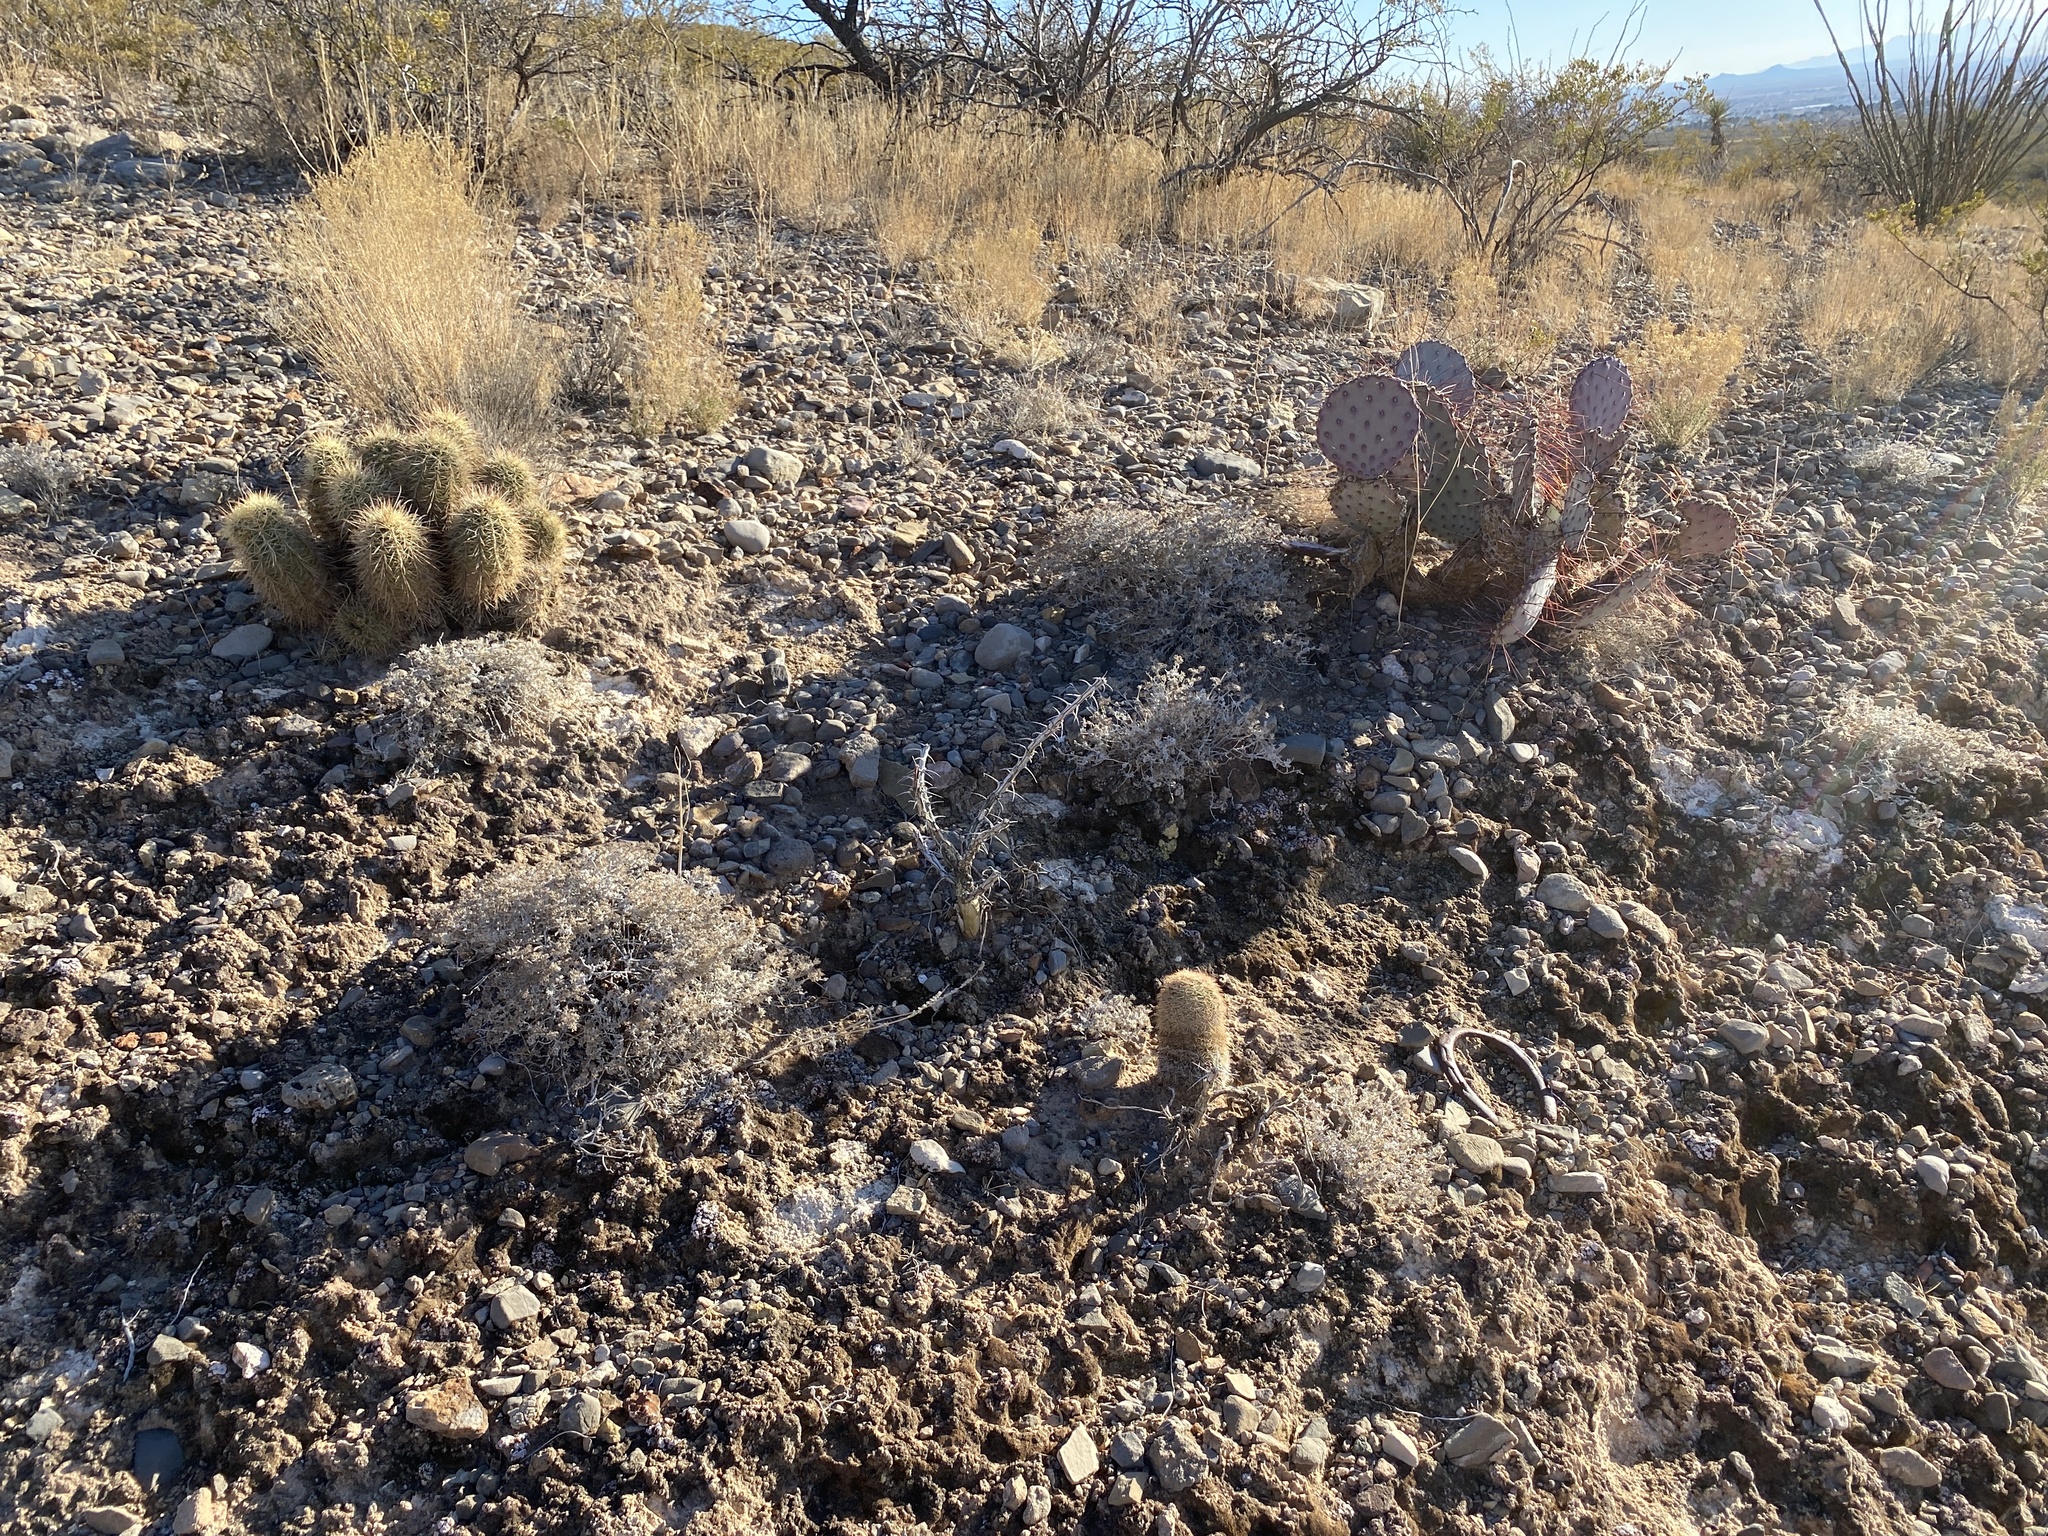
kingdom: Plantae
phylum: Tracheophyta
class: Magnoliopsida
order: Ericales
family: Fouquieriaceae
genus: Fouquieria
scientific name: Fouquieria splendens
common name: Vine-cactus
